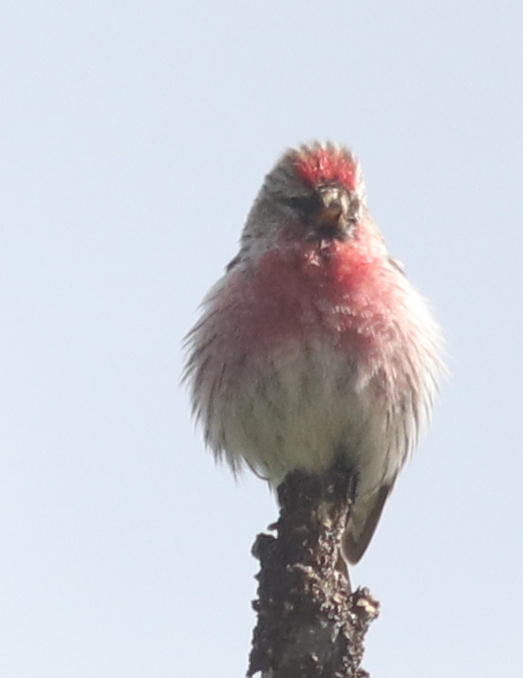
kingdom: Animalia
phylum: Chordata
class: Aves
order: Passeriformes
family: Fringillidae
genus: Acanthis
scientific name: Acanthis flammea
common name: Common redpoll
